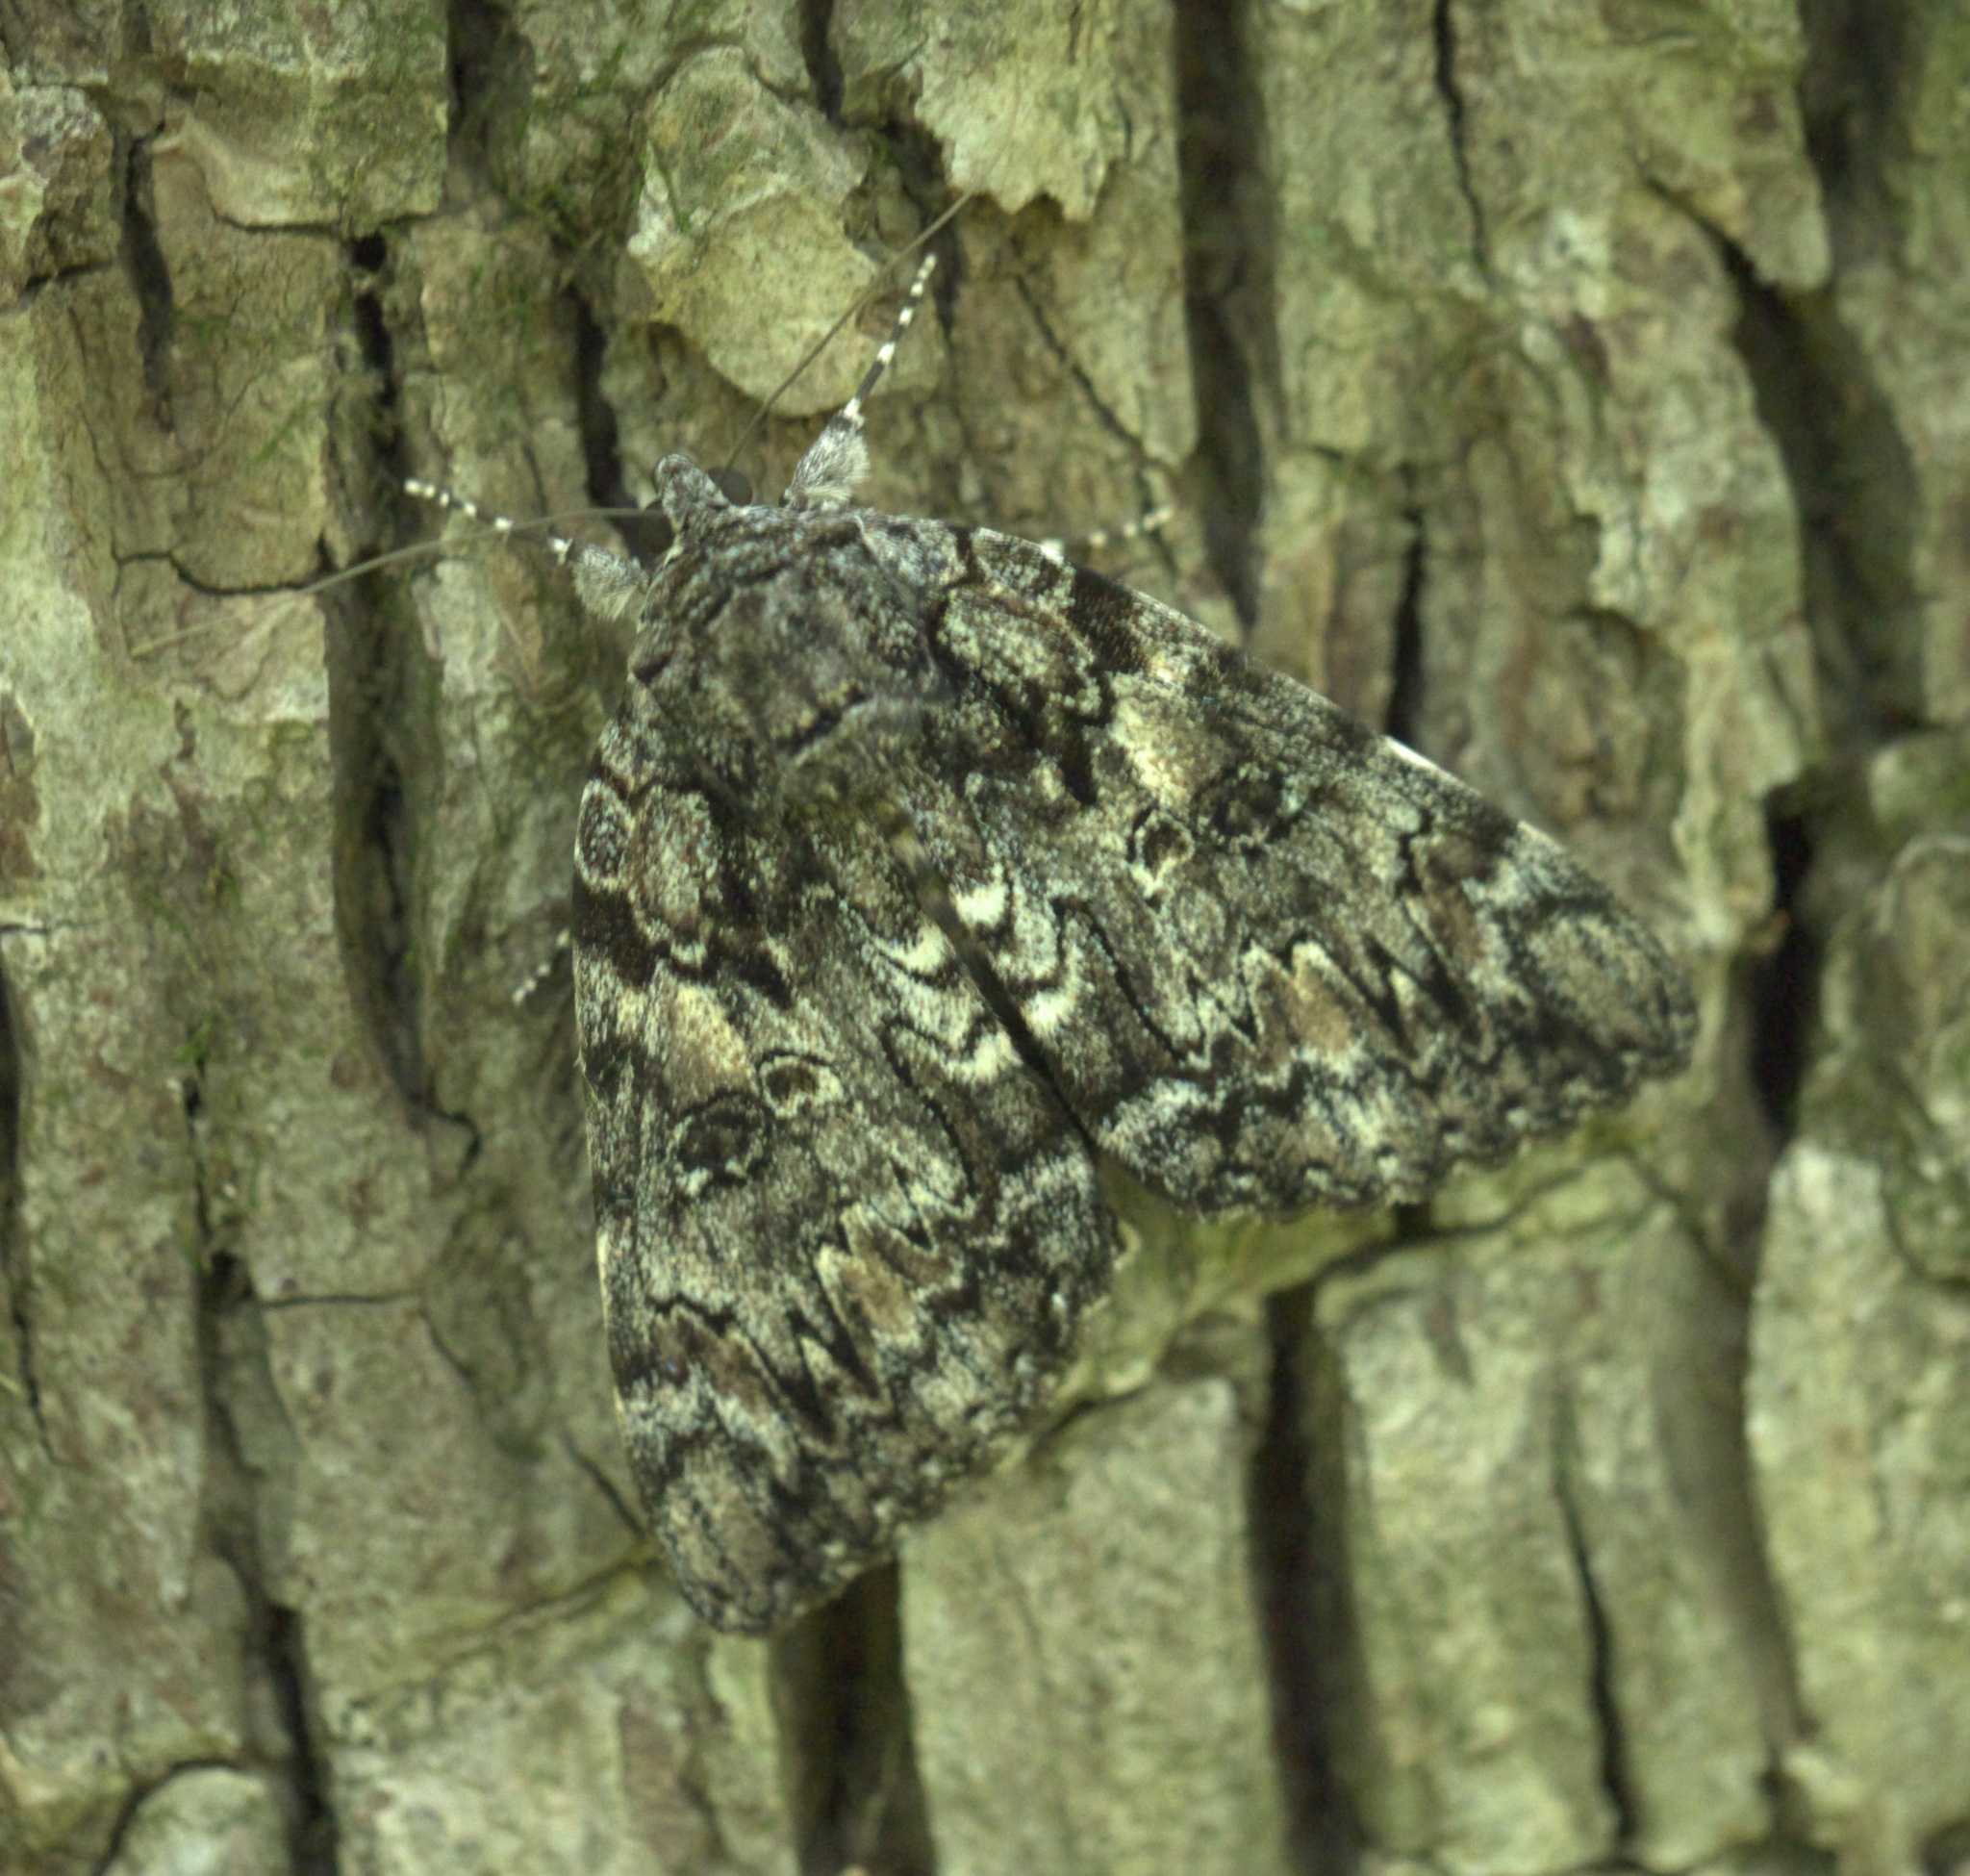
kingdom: Animalia
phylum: Arthropoda
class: Insecta
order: Lepidoptera
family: Erebidae
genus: Catocala
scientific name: Catocala lacrymosa
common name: Tearful underwing
